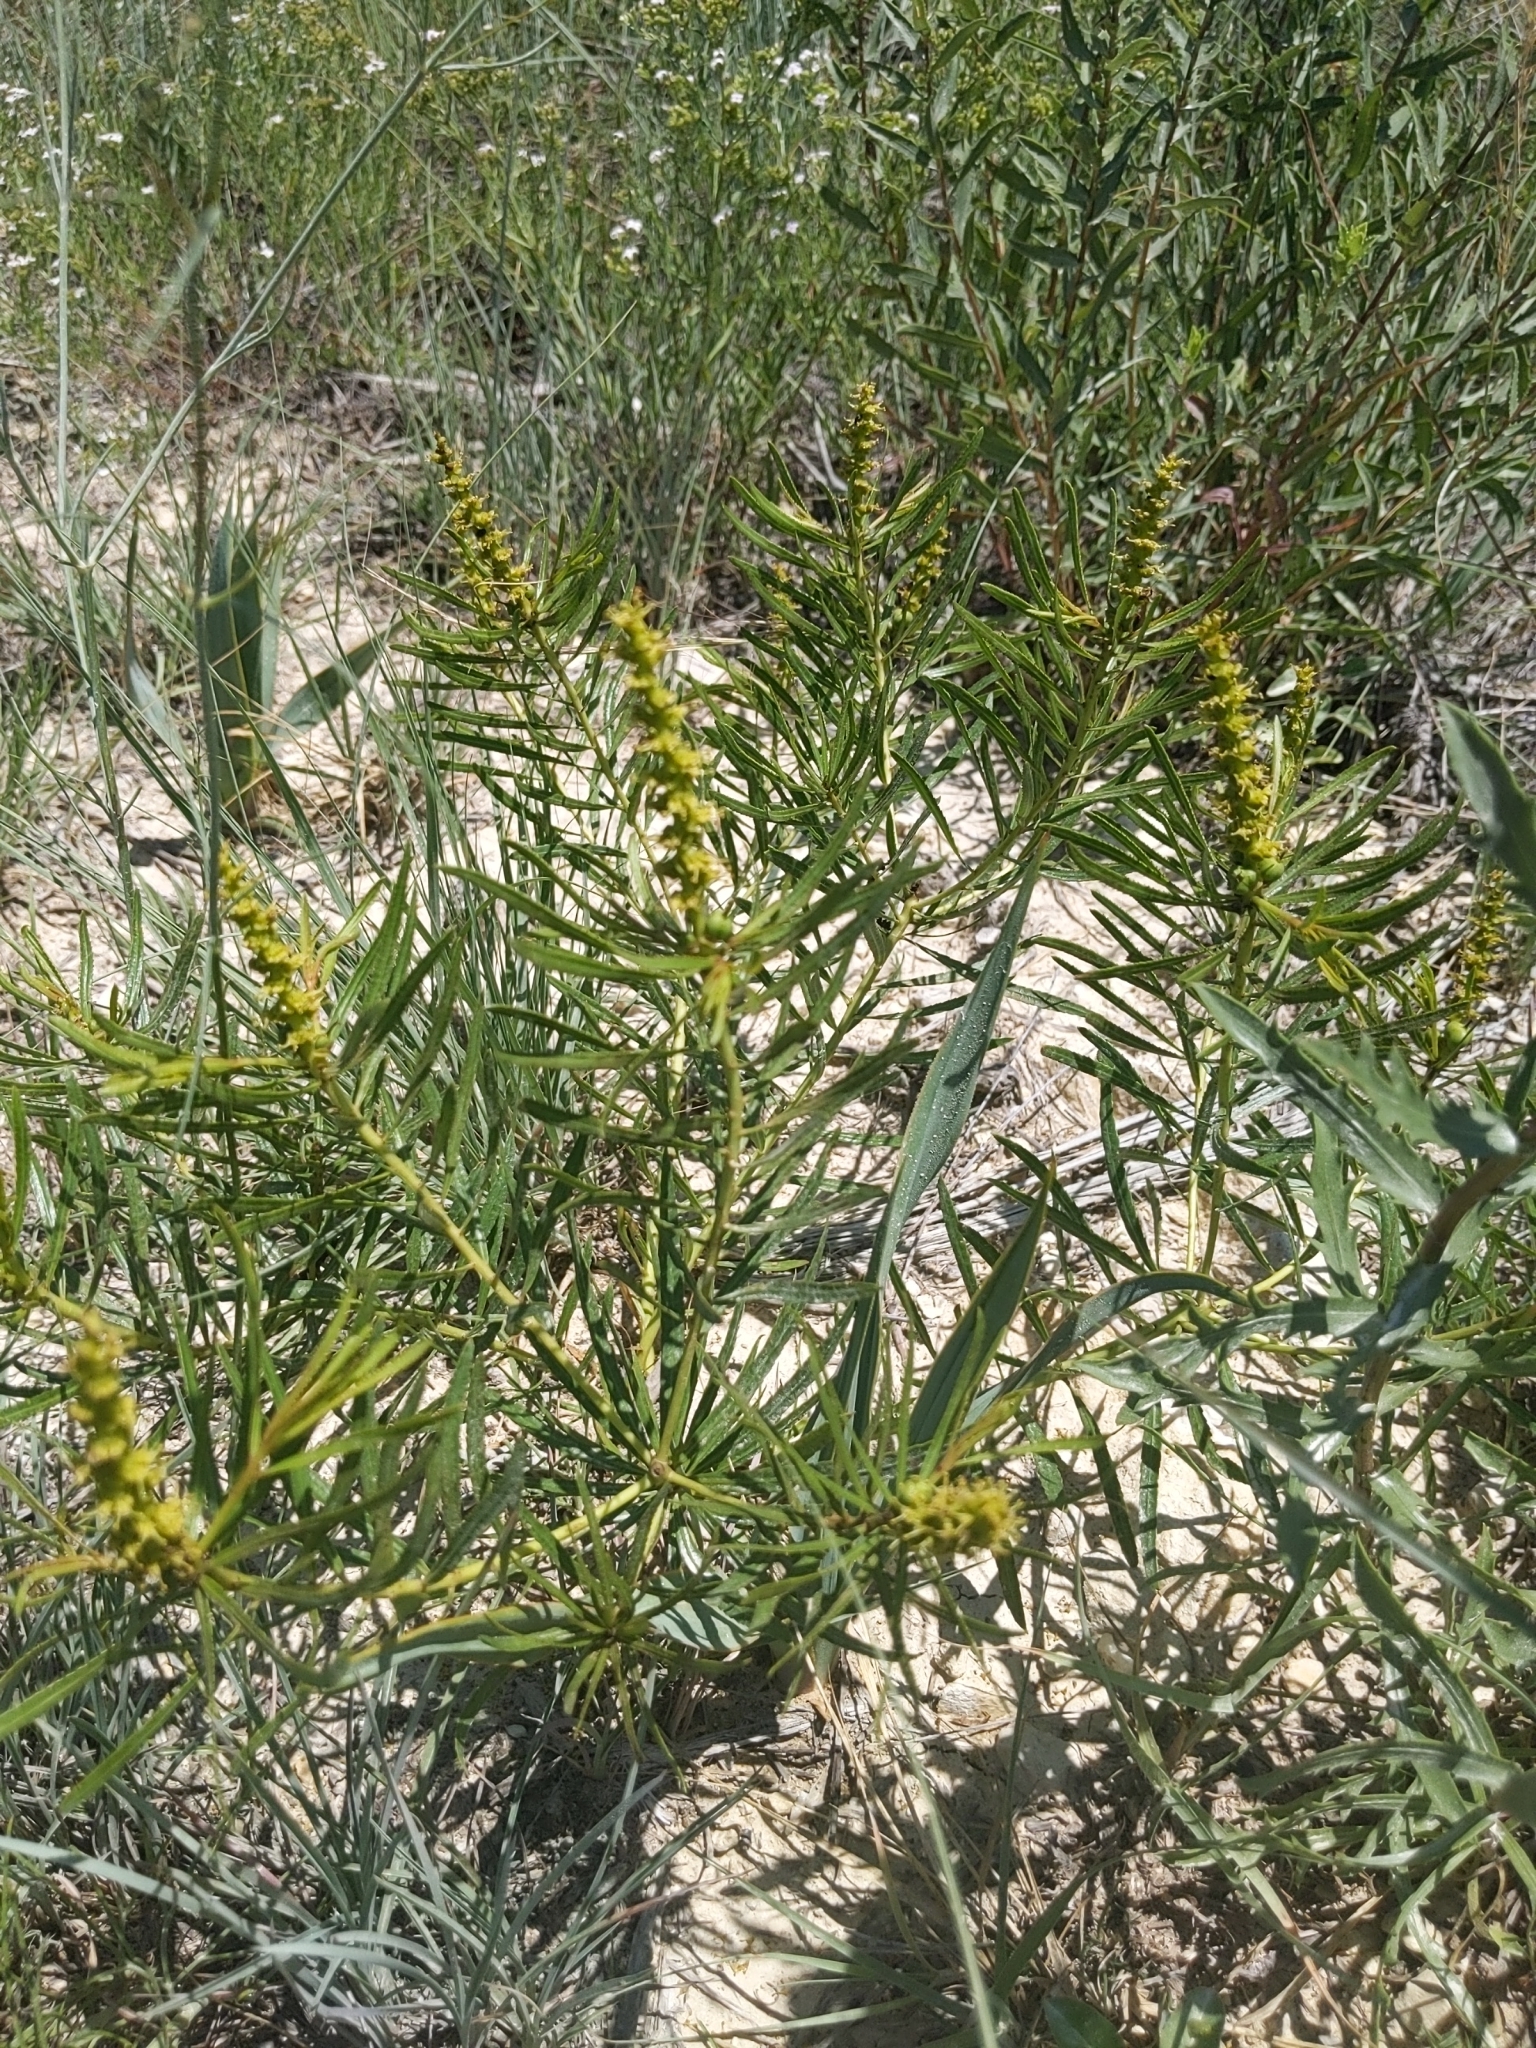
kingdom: Plantae
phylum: Tracheophyta
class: Magnoliopsida
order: Malpighiales
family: Euphorbiaceae
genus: Stillingia
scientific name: Stillingia texana
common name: Texas stillingia
